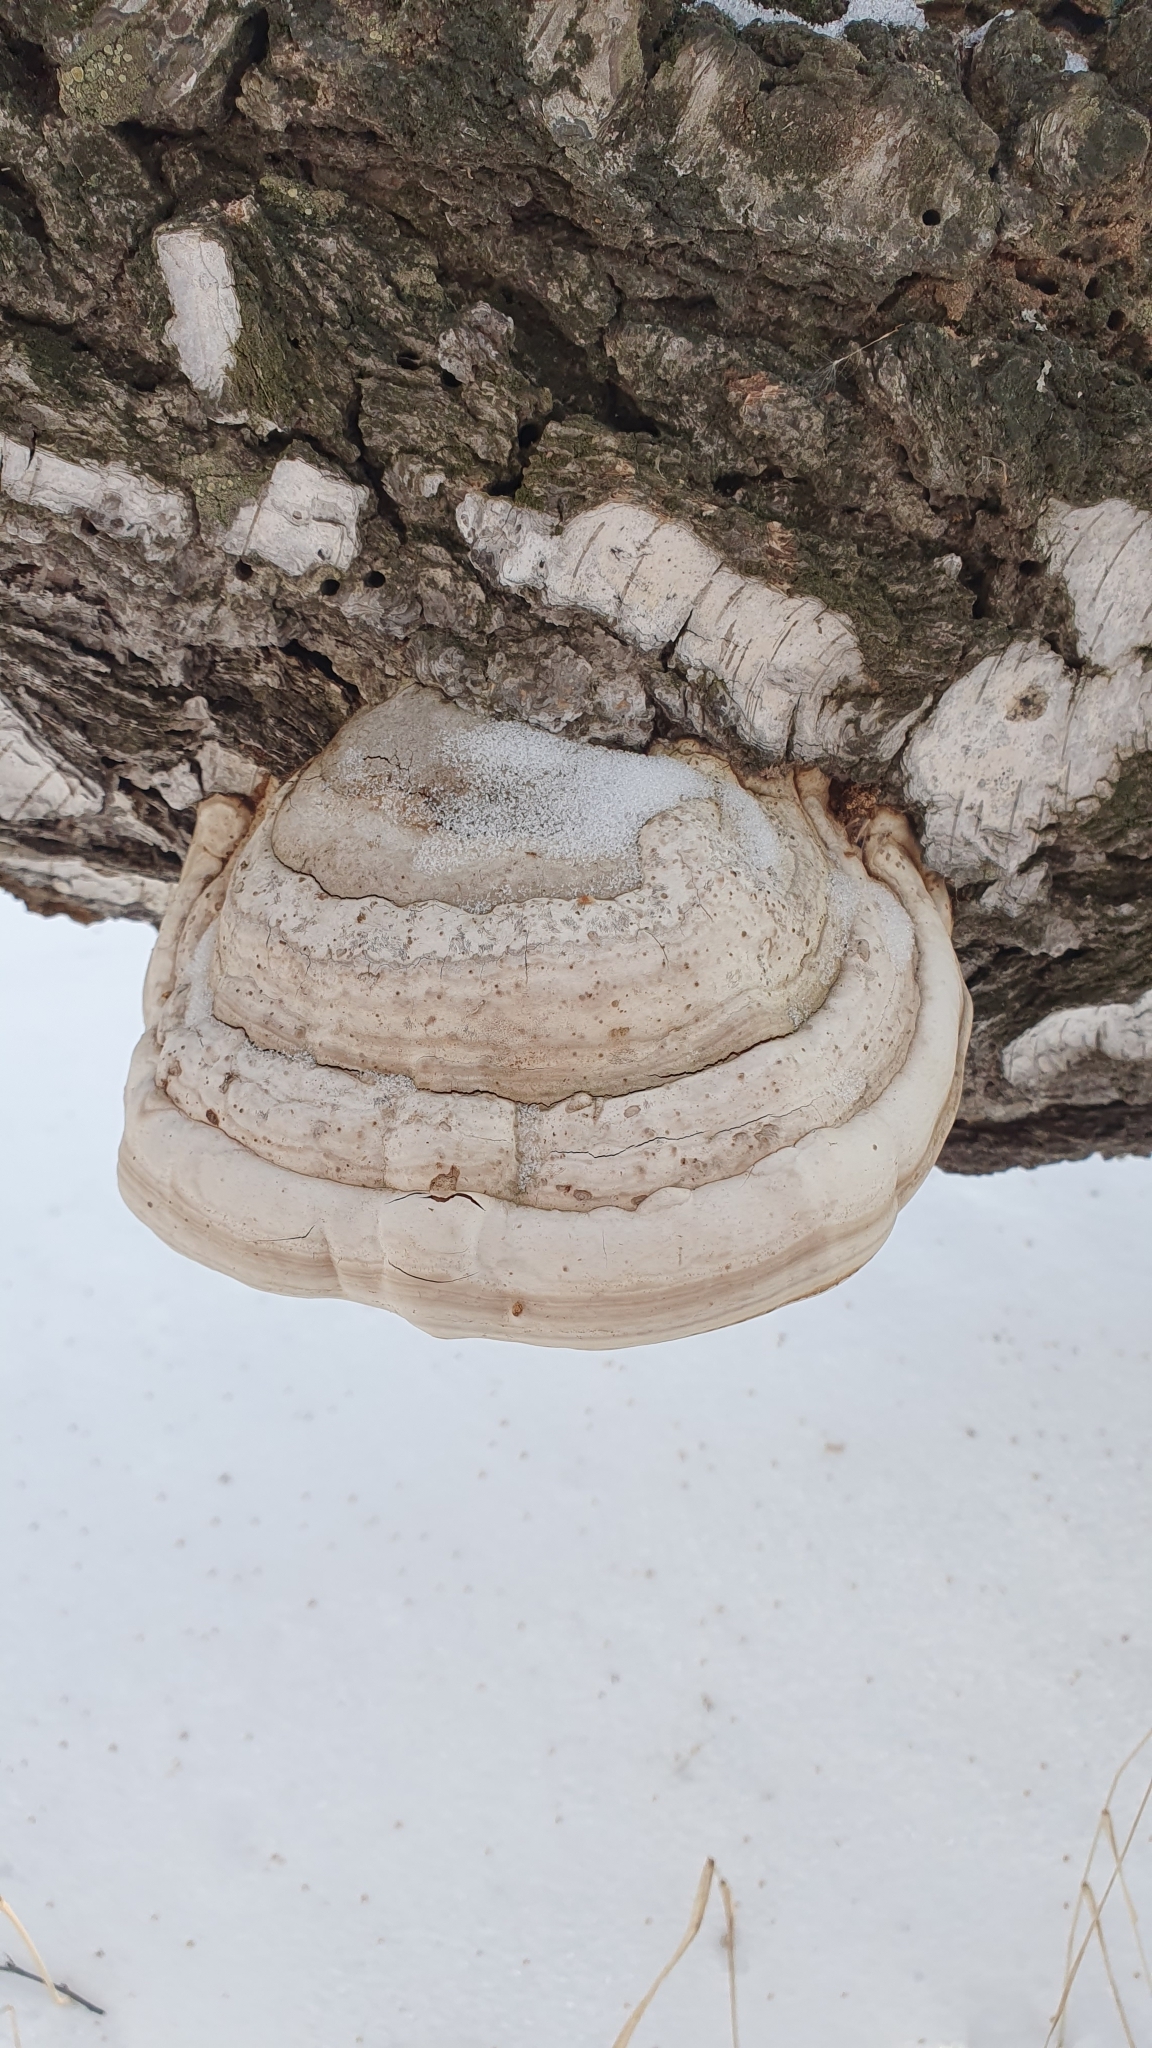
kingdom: Fungi
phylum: Basidiomycota
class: Agaricomycetes
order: Polyporales
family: Polyporaceae
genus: Fomes
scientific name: Fomes fomentarius
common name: Hoof fungus
